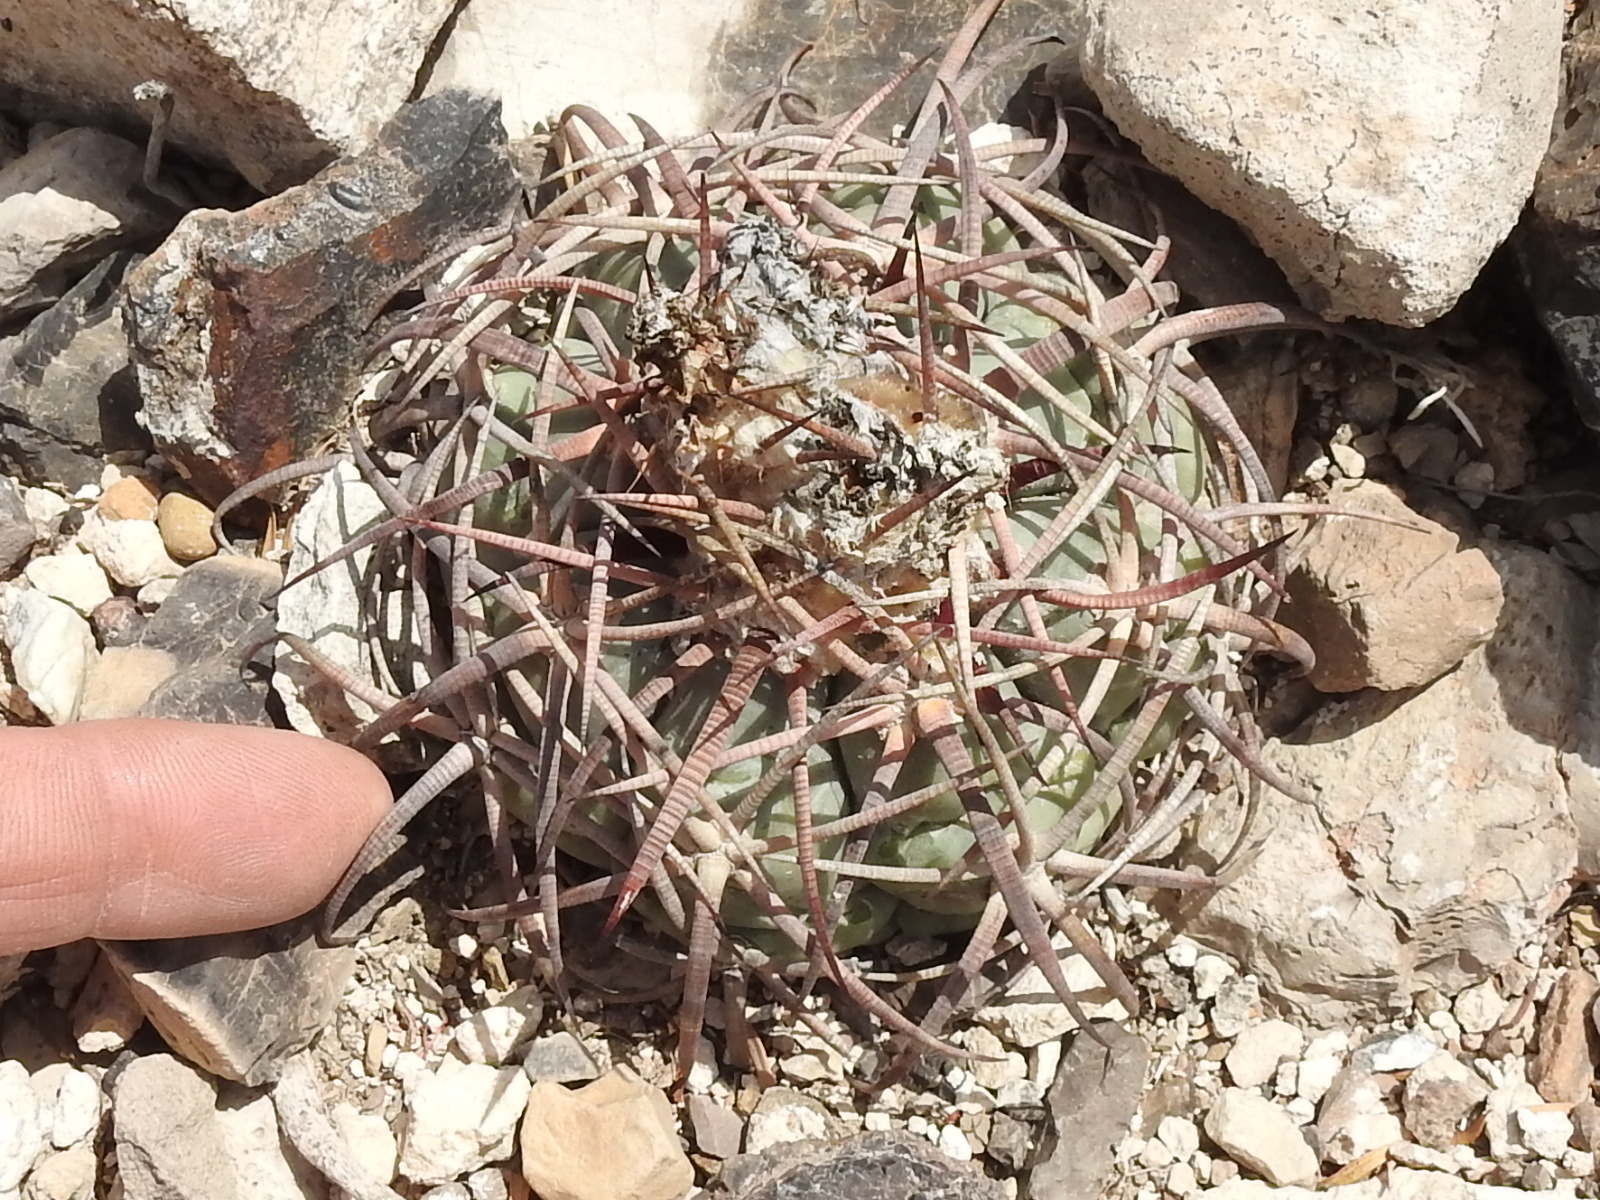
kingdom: Plantae
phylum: Tracheophyta
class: Magnoliopsida
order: Caryophyllales
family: Cactaceae
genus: Echinocactus
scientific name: Echinocactus horizonthalonius
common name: Devilshead
